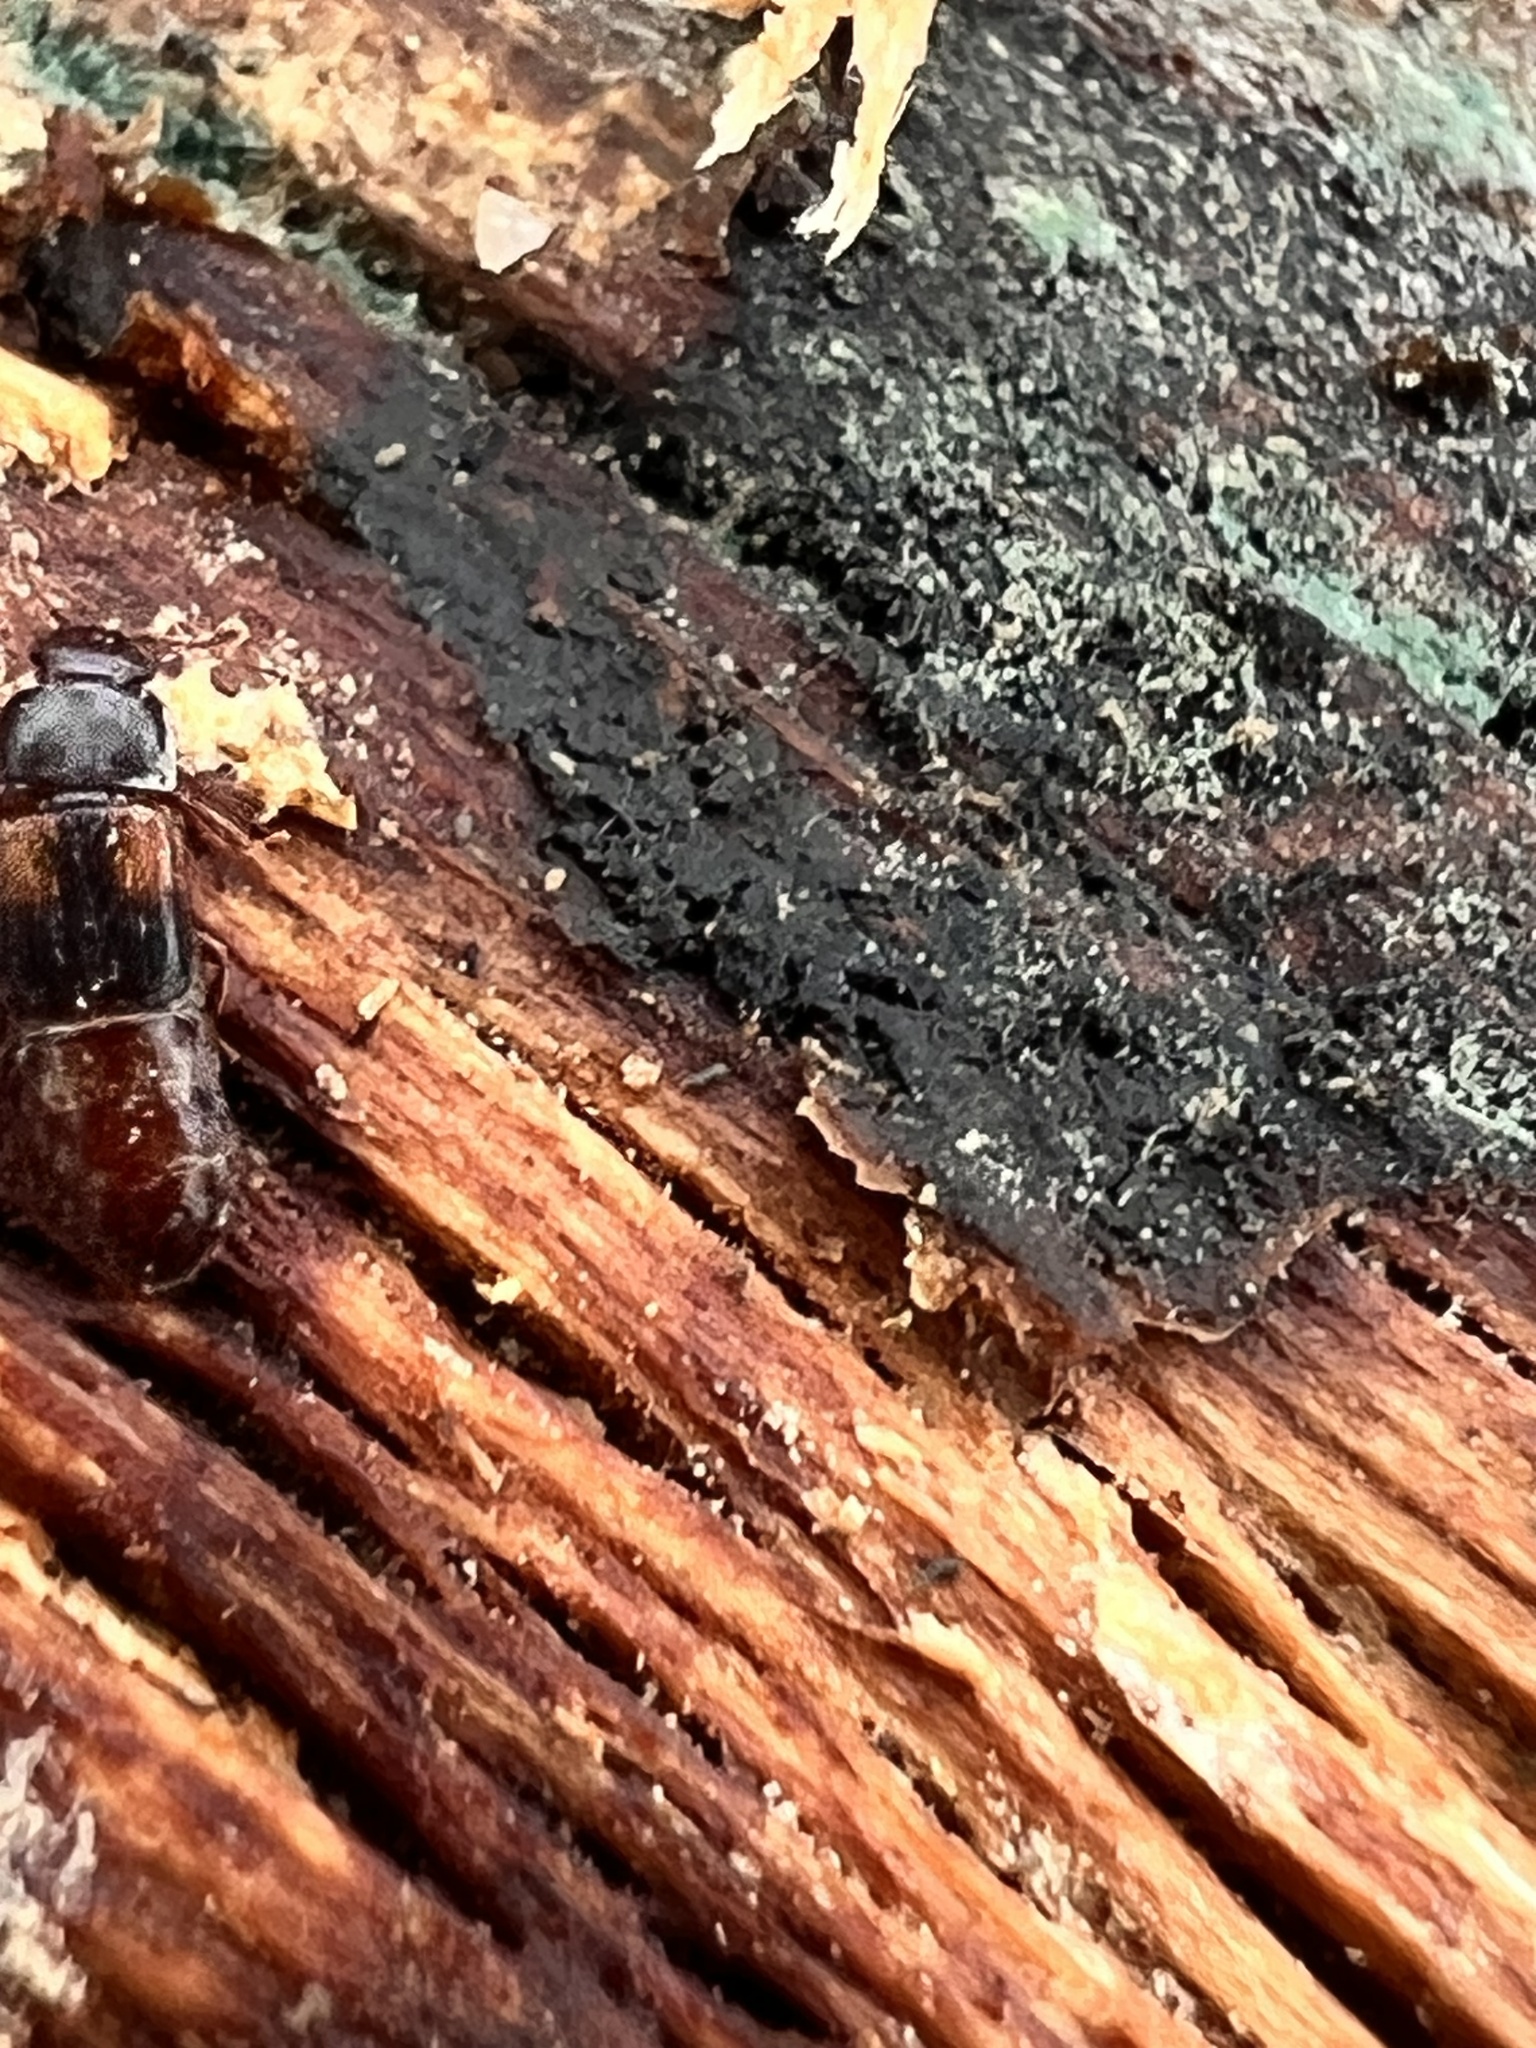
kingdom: Animalia
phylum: Arthropoda
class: Insecta
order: Coleoptera
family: Nitidulidae
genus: Brachypeplus
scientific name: Brachypeplus binotatus
